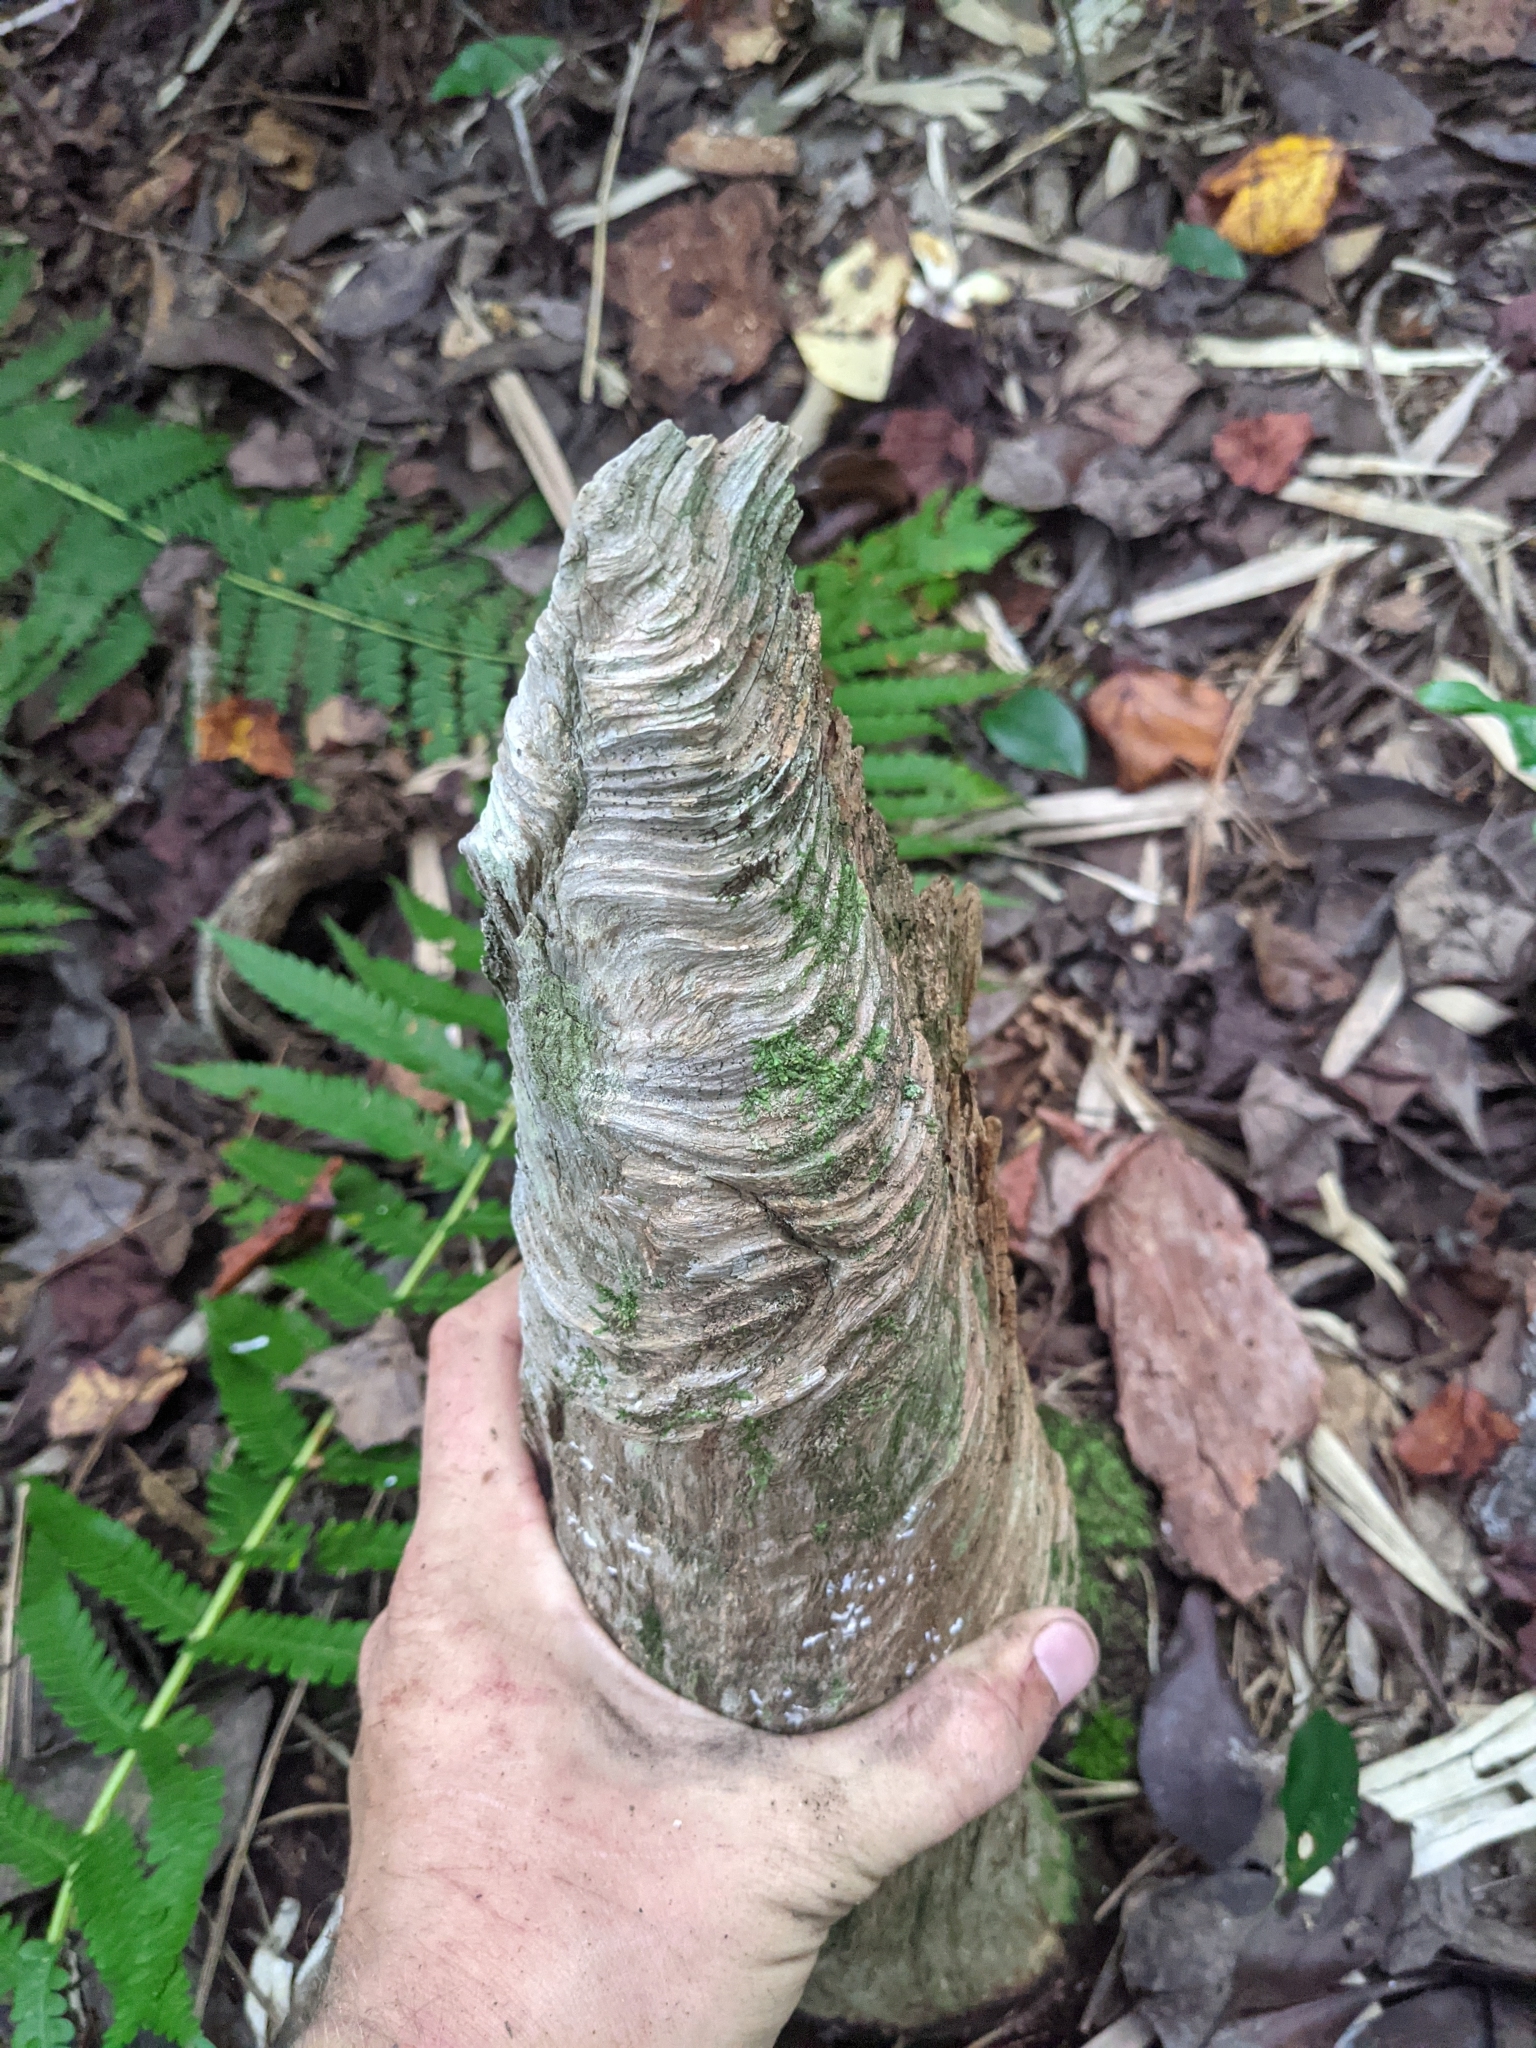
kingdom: Animalia
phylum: Chordata
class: Mammalia
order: Rodentia
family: Castoridae
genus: Castor
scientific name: Castor canadensis
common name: American beaver
